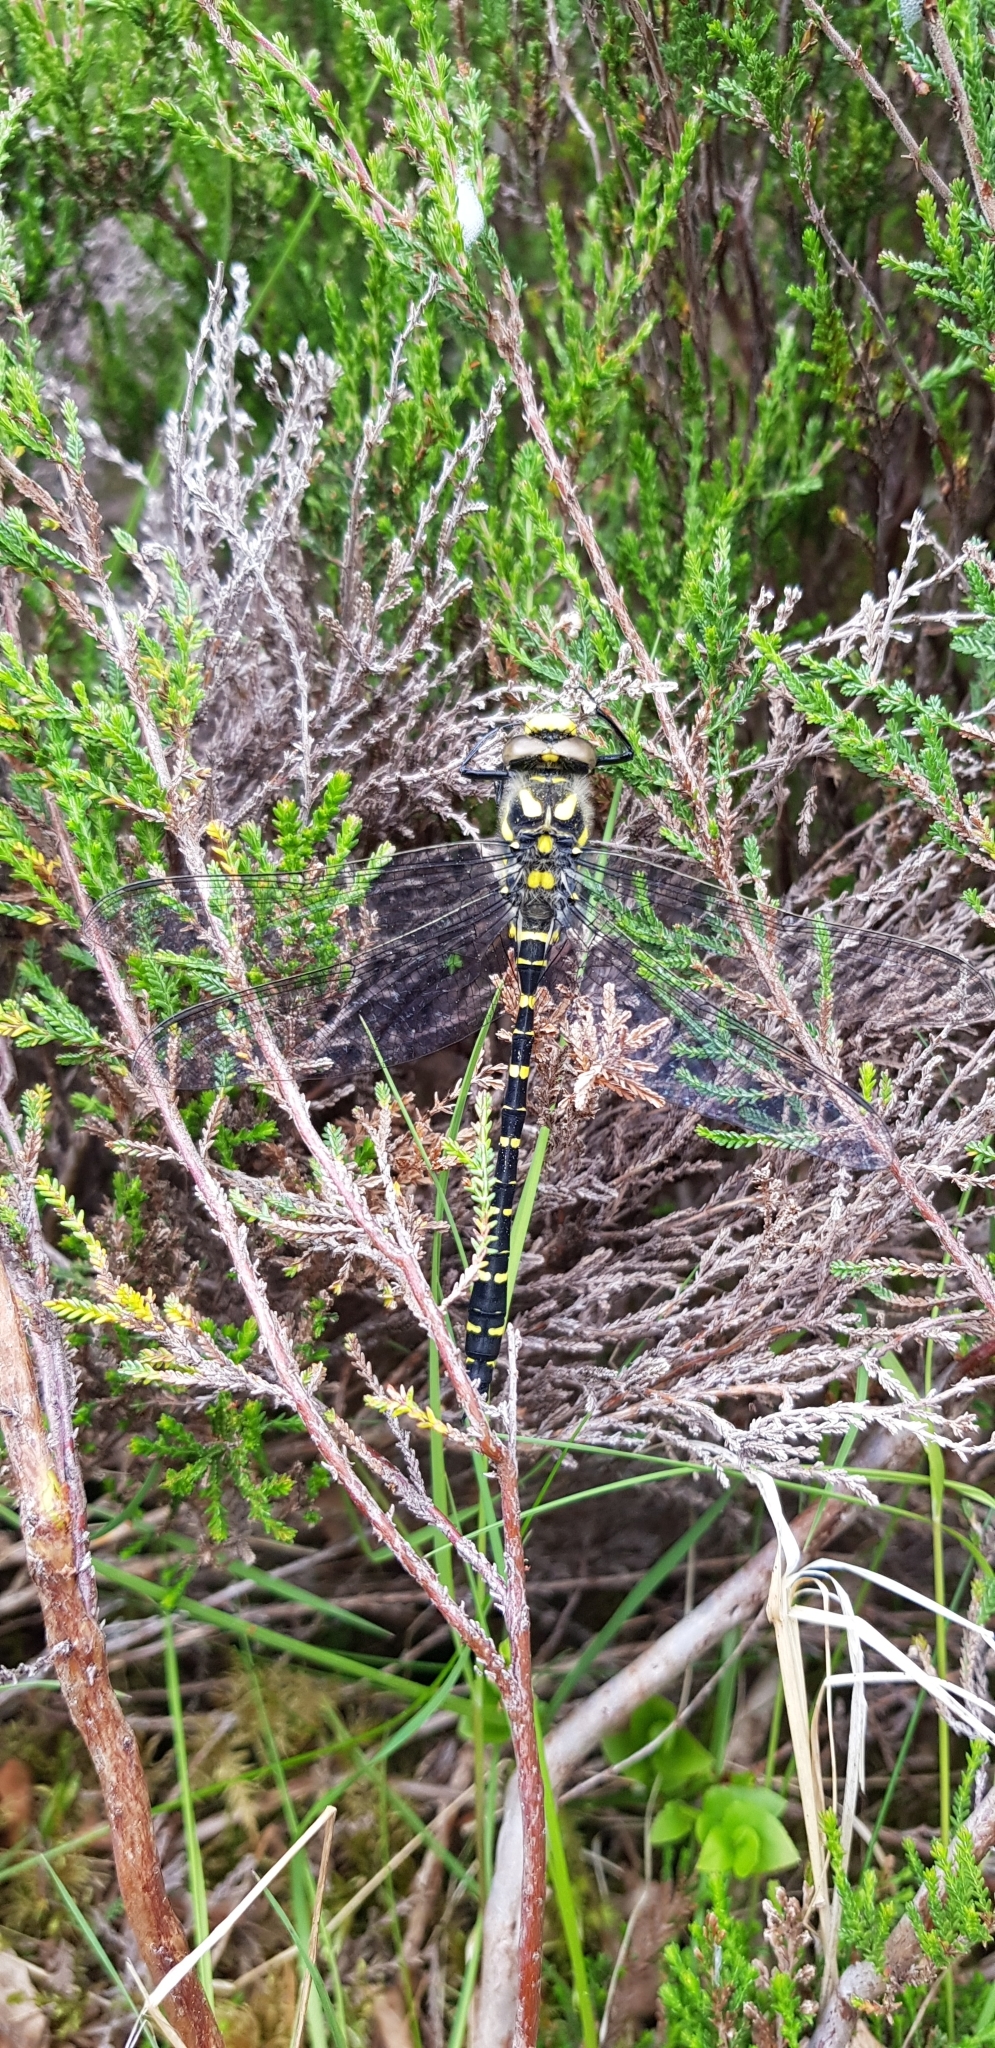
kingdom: Animalia
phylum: Arthropoda
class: Insecta
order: Odonata
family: Cordulegastridae
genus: Cordulegaster
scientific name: Cordulegaster boltonii
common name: Golden-ringed dragonfly
